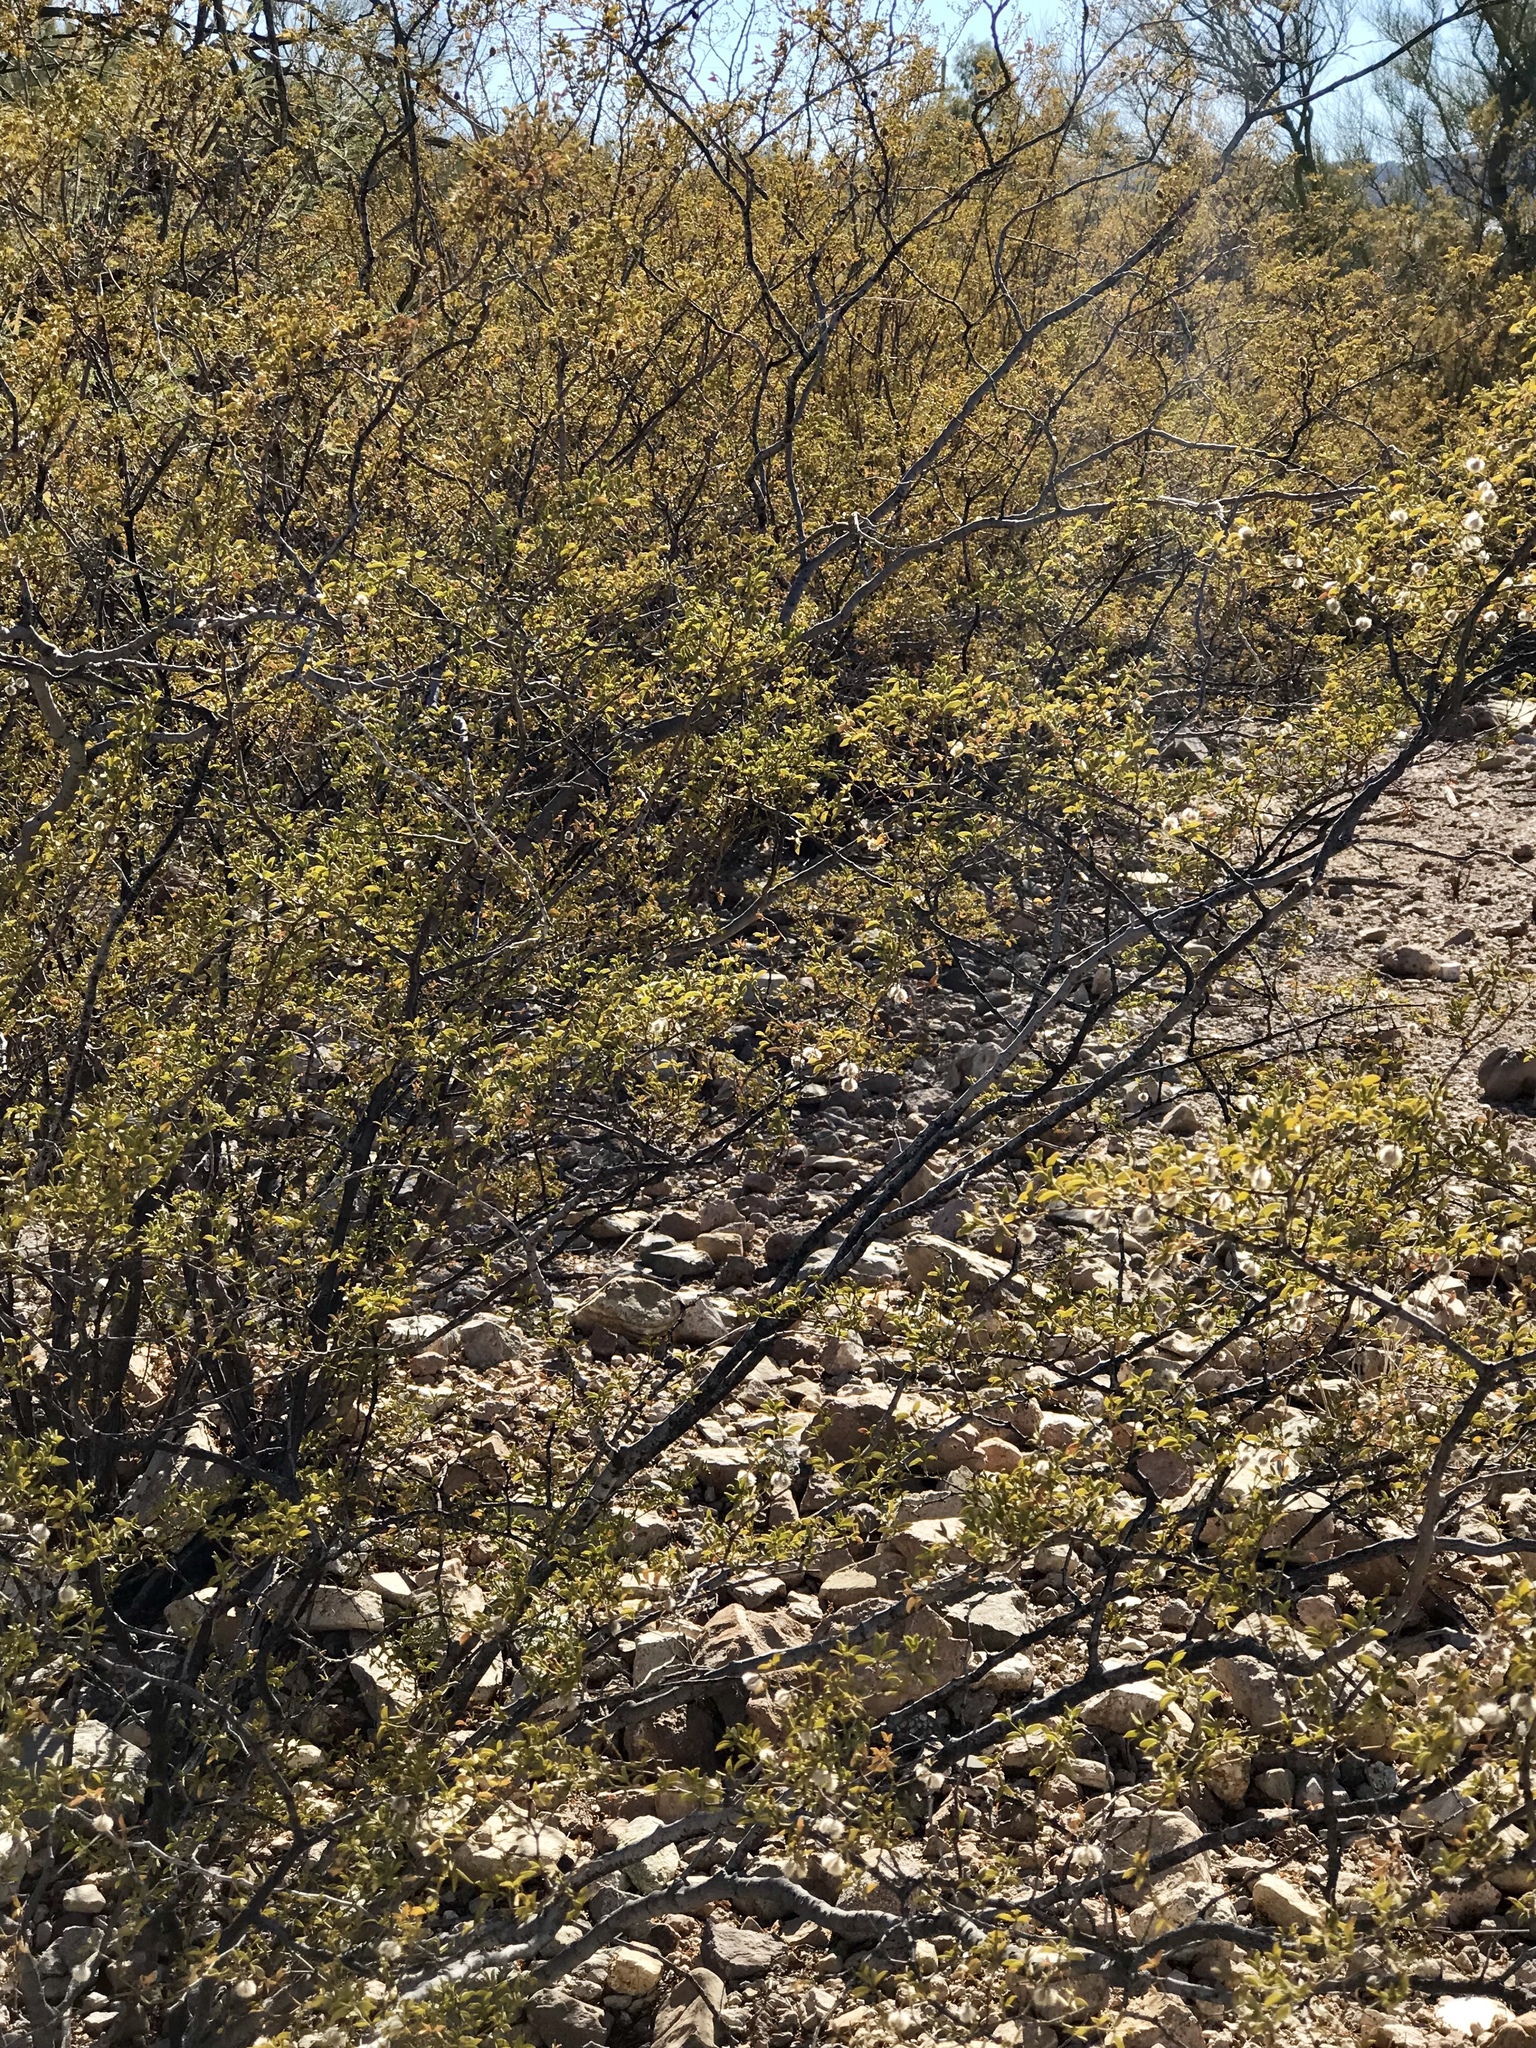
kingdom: Plantae
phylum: Tracheophyta
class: Magnoliopsida
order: Zygophyllales
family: Zygophyllaceae
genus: Larrea
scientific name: Larrea tridentata
